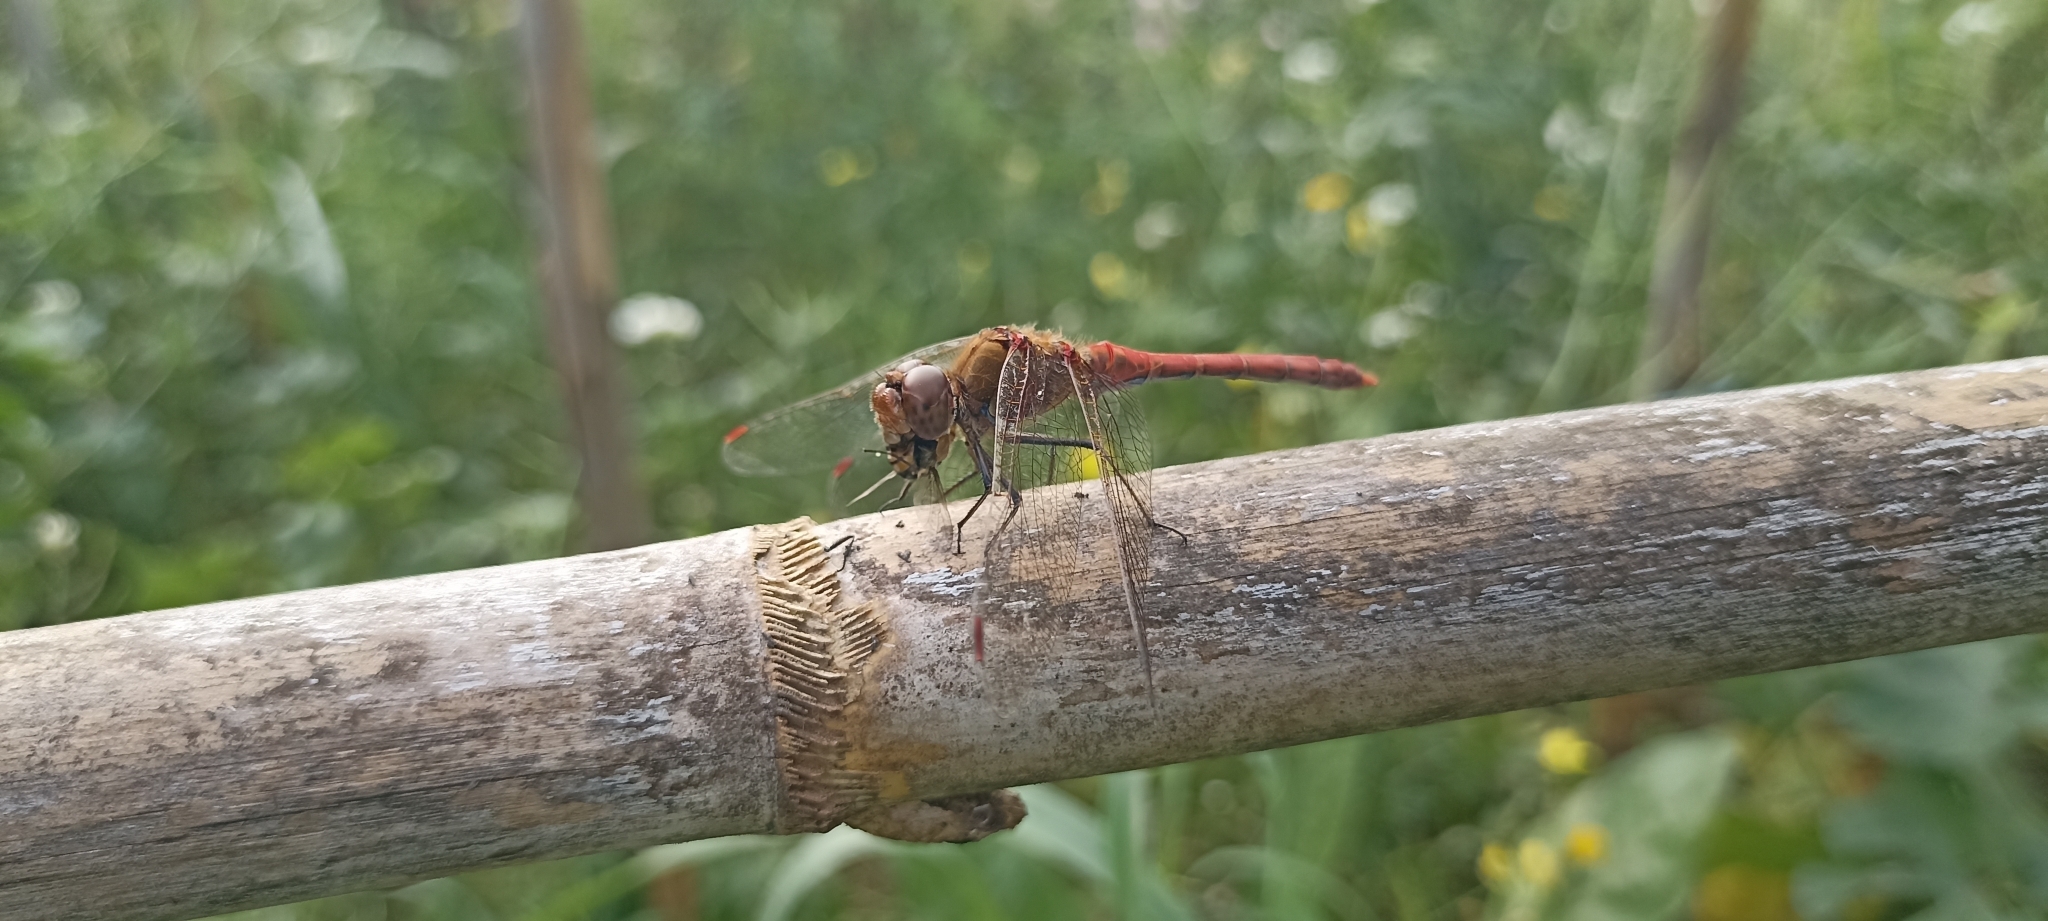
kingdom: Animalia
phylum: Arthropoda
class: Insecta
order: Odonata
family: Libellulidae
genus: Sympetrum
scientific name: Sympetrum striolatum
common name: Common darter
